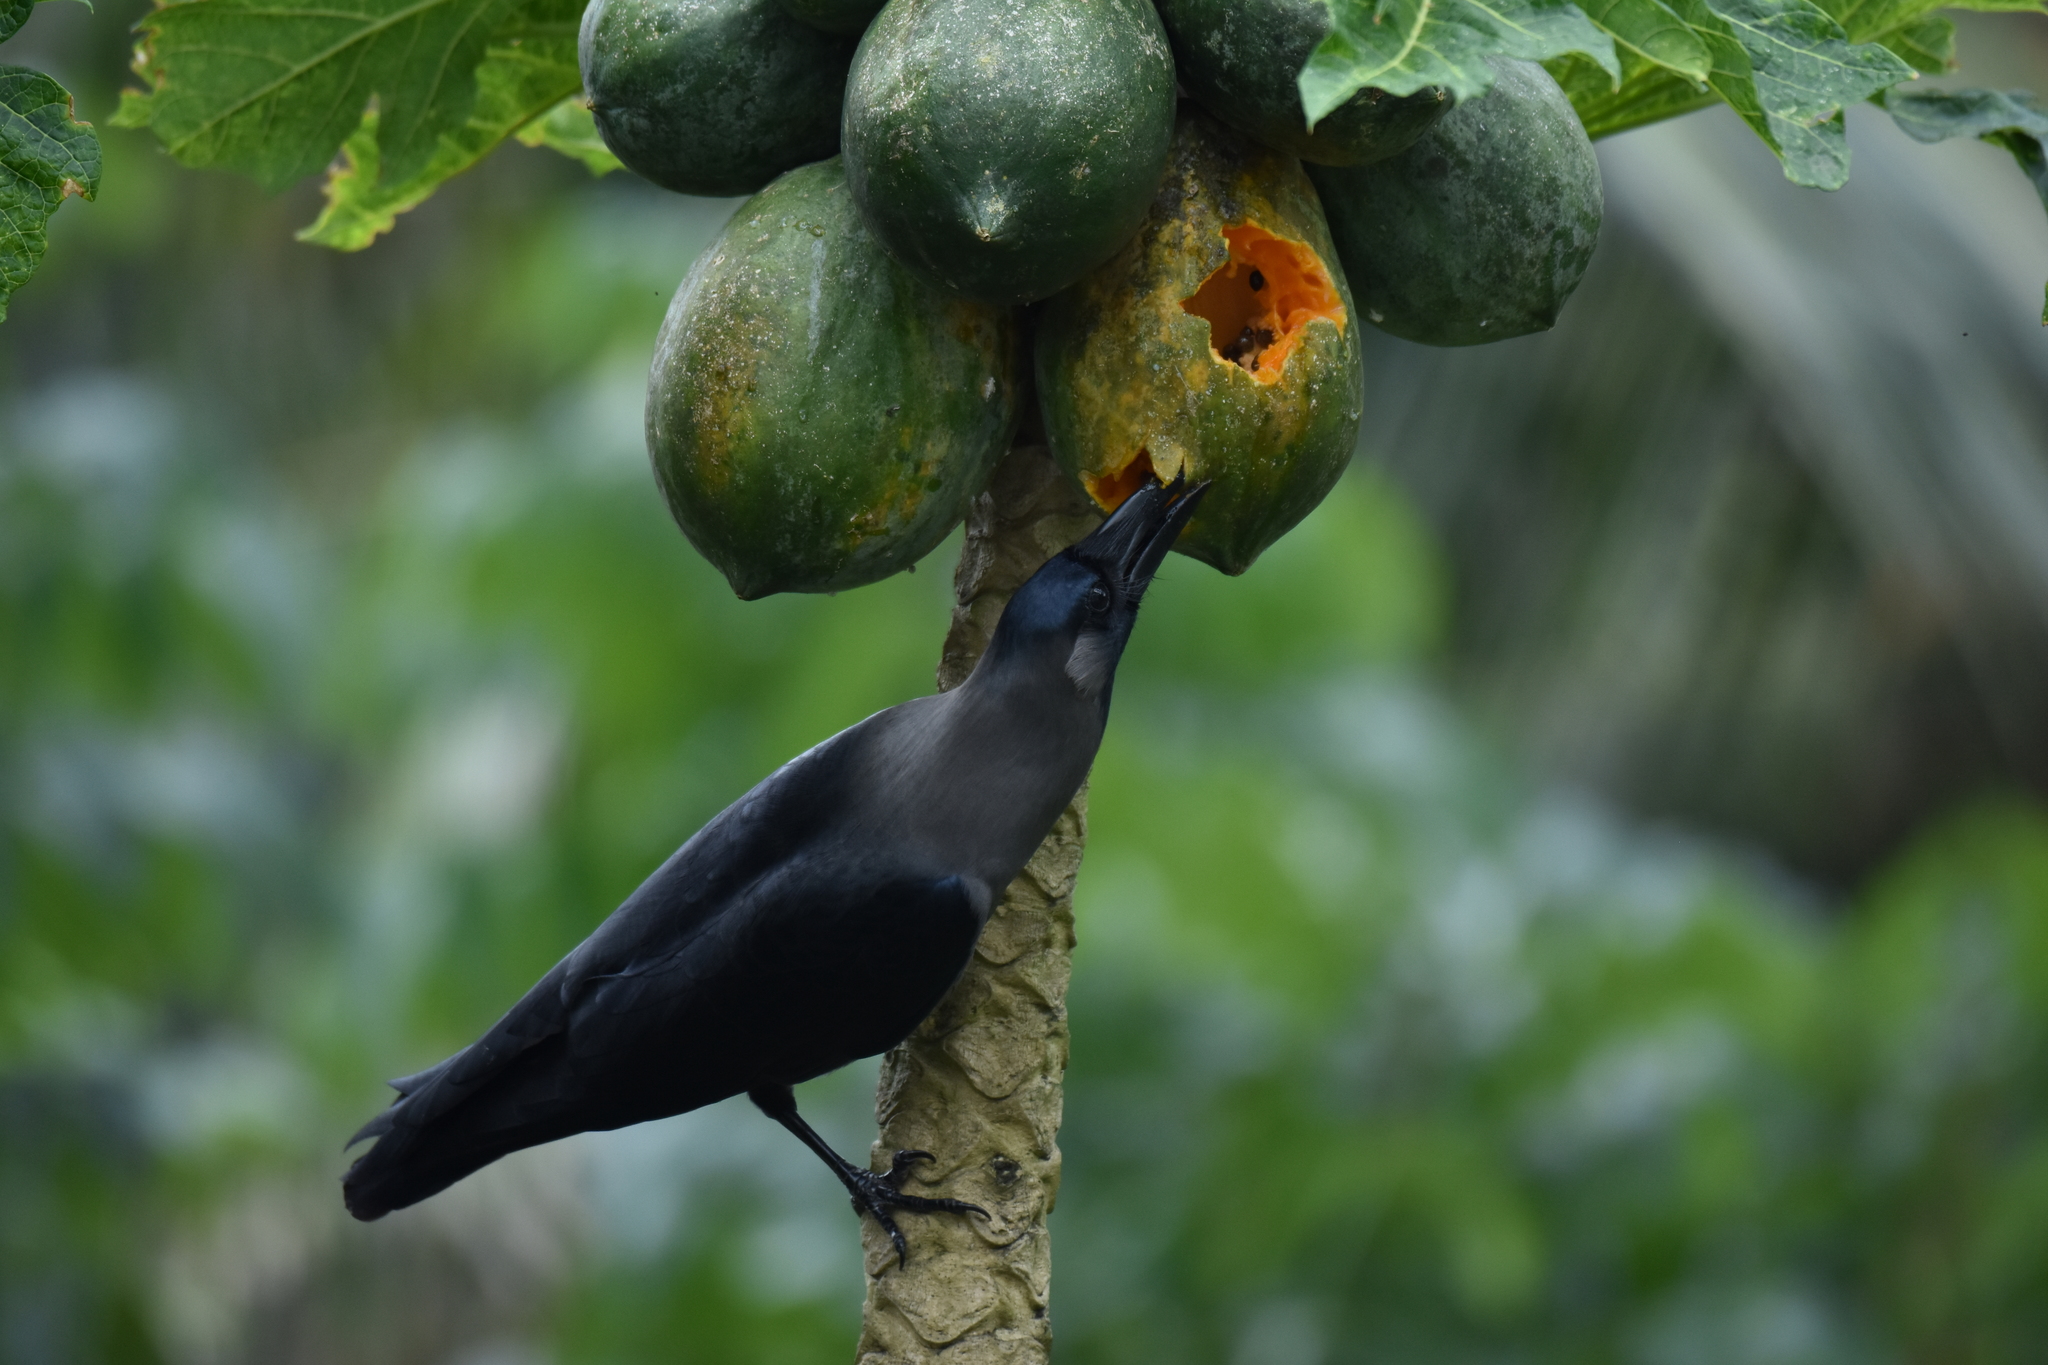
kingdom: Animalia
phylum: Chordata
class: Aves
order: Passeriformes
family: Corvidae
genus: Corvus
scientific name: Corvus splendens
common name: House crow
